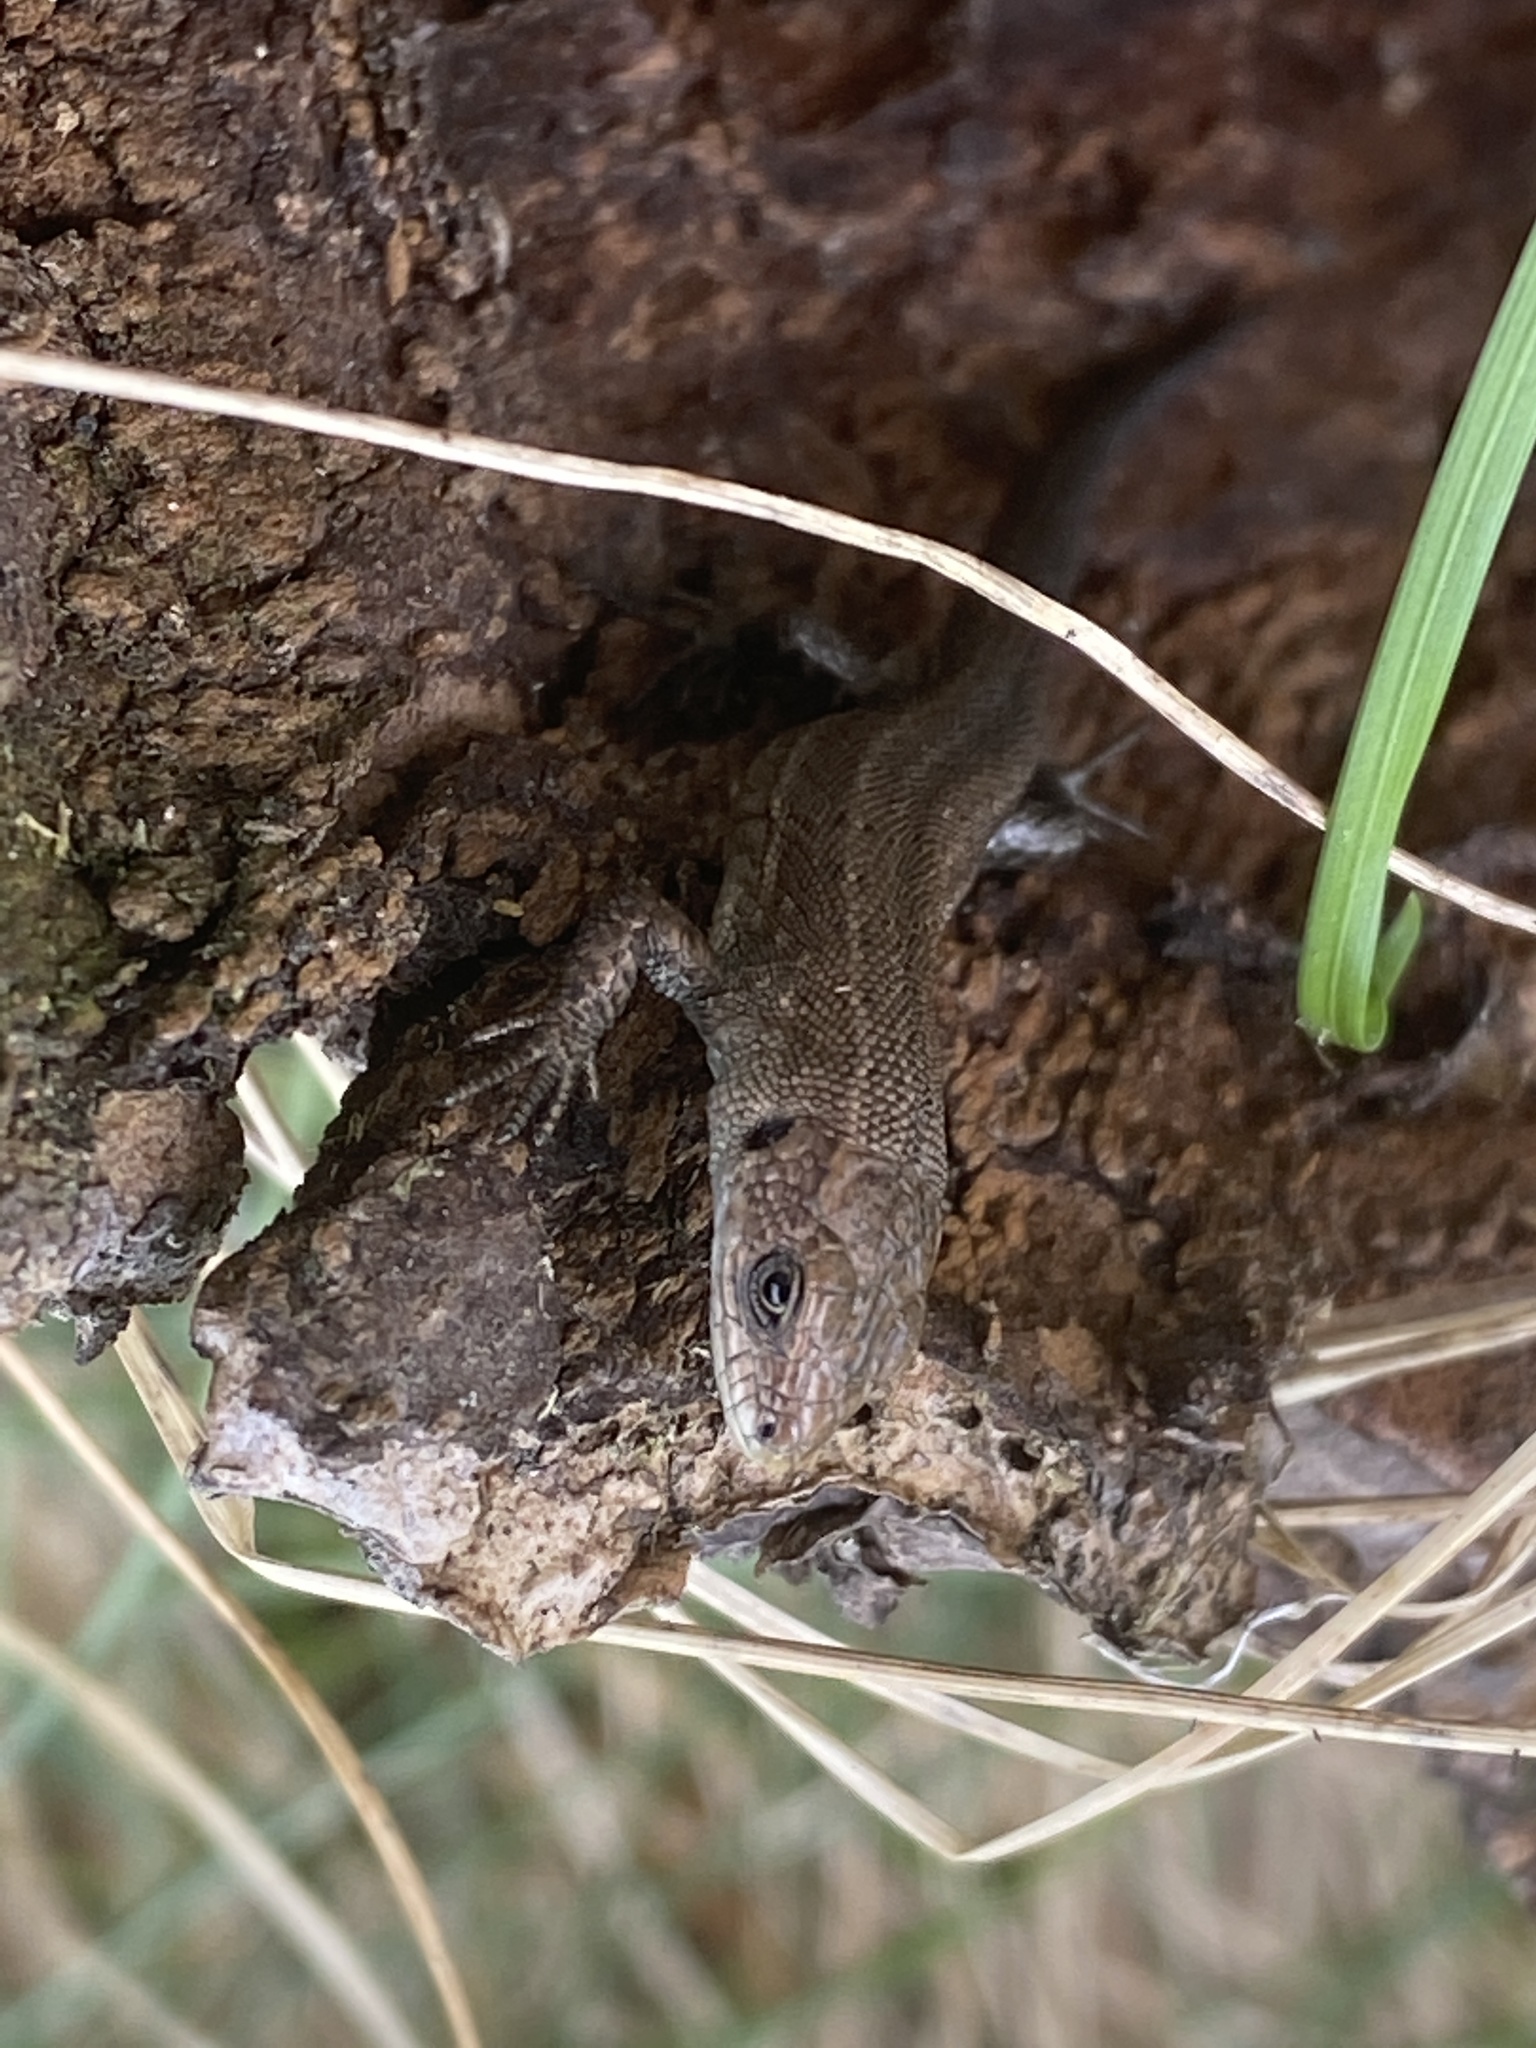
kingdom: Animalia
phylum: Chordata
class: Squamata
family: Lacertidae
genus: Zootoca
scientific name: Zootoca vivipara
